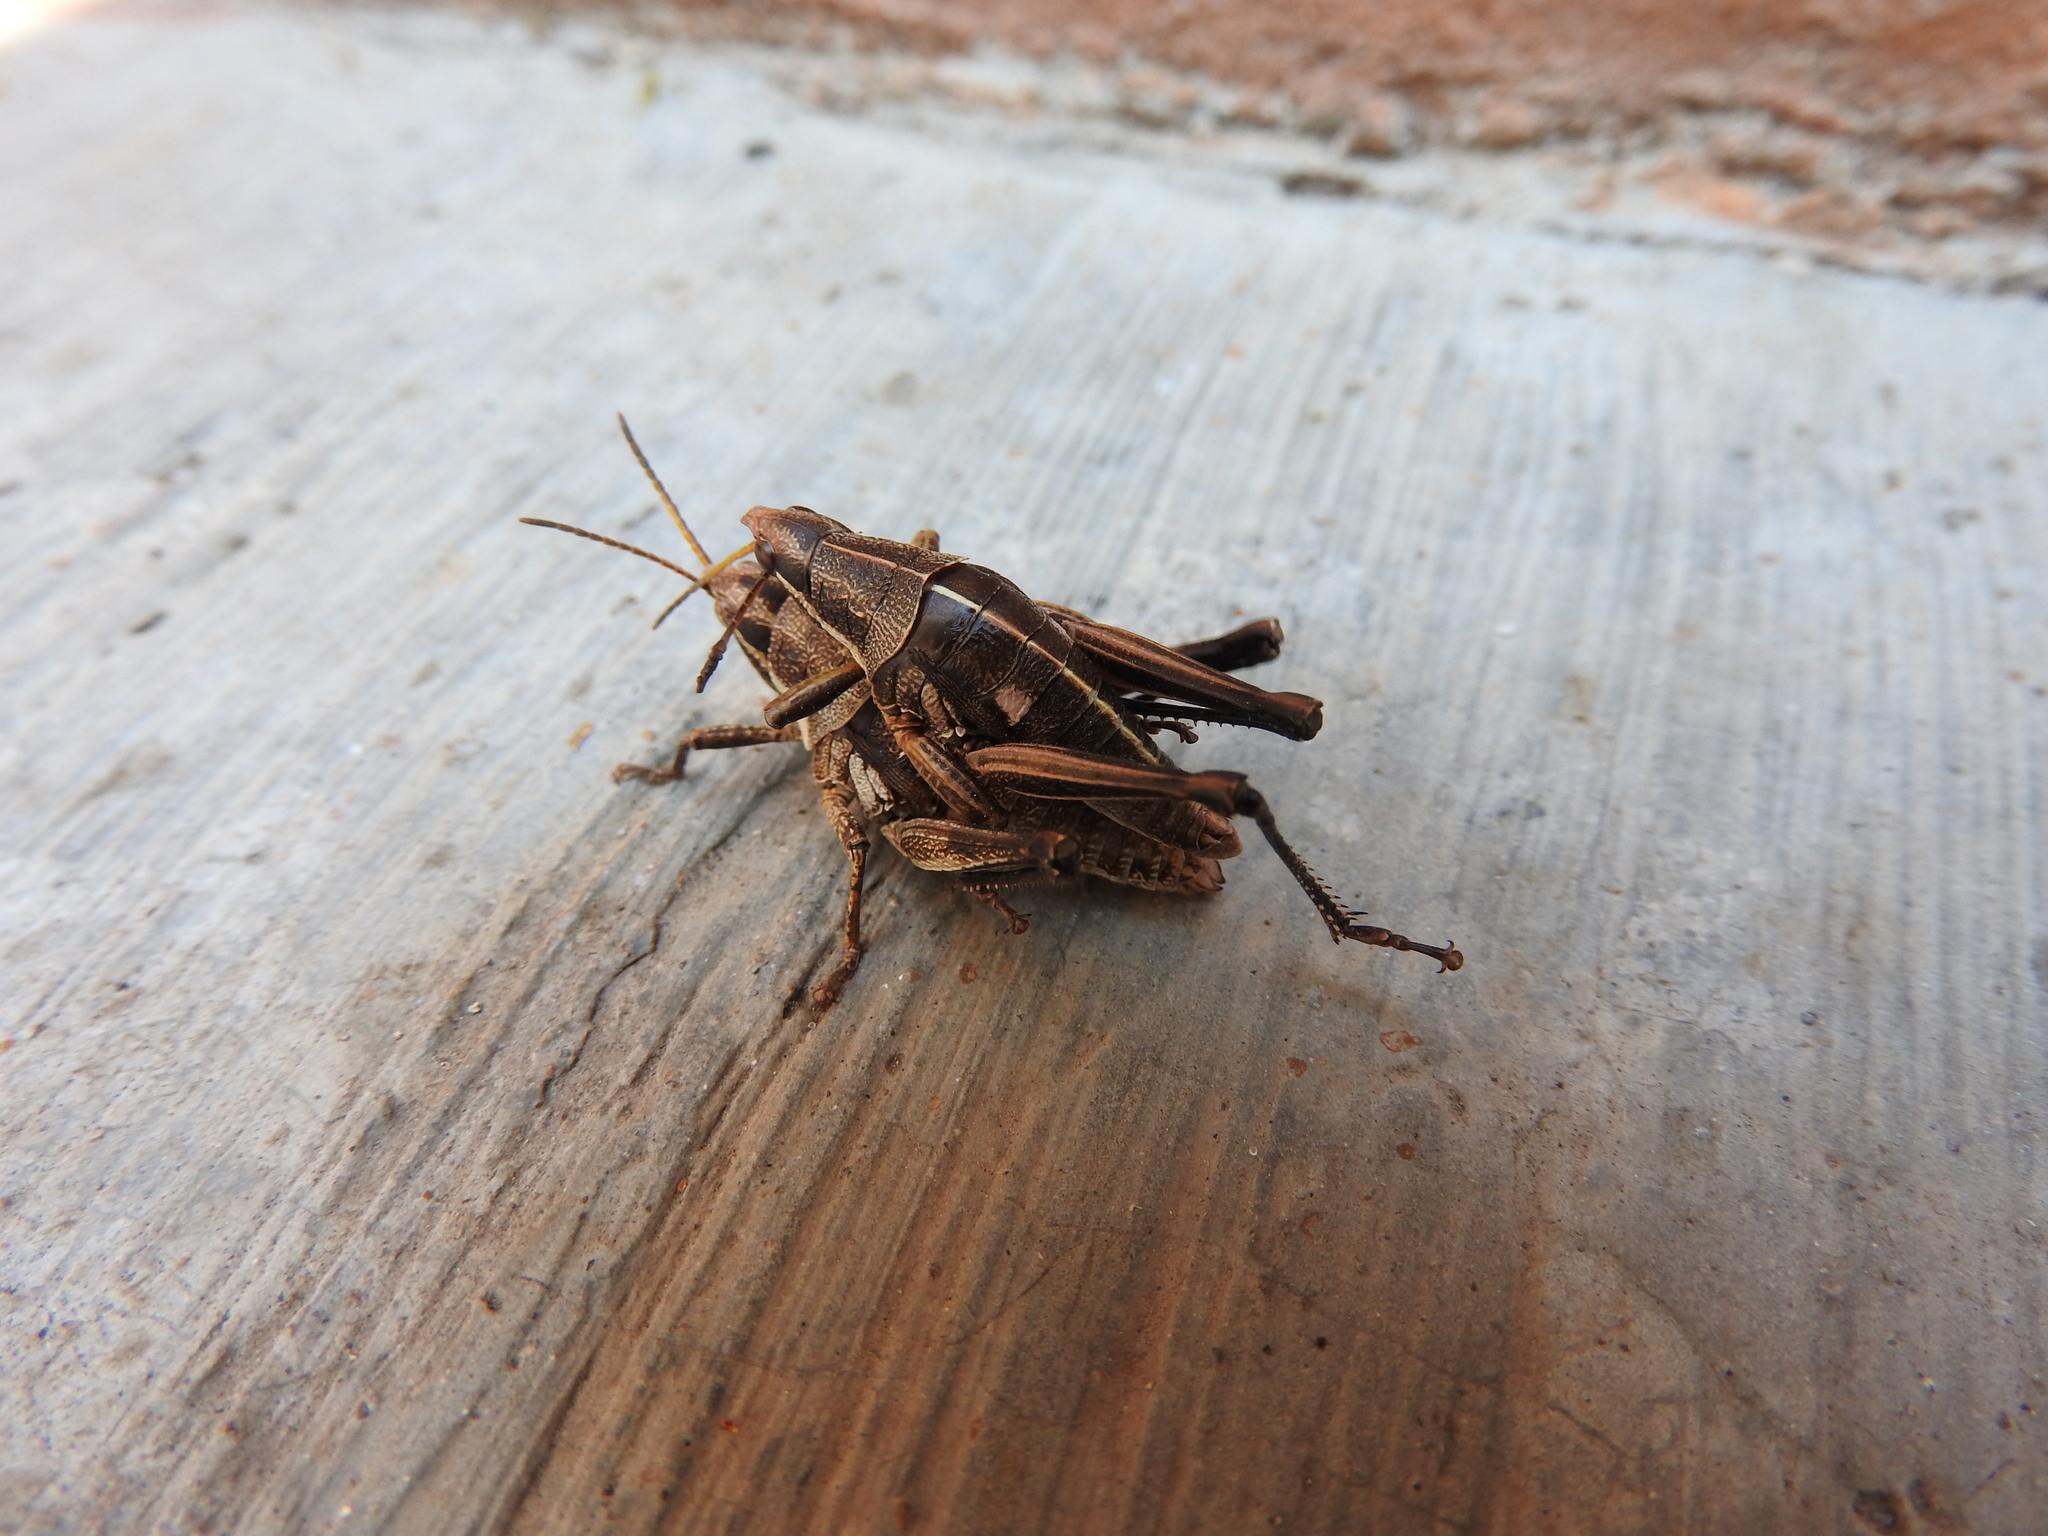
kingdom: Animalia
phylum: Arthropoda
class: Insecta
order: Orthoptera
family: Pyrgomorphidae
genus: Sphenarium
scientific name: Sphenarium purpurascens
